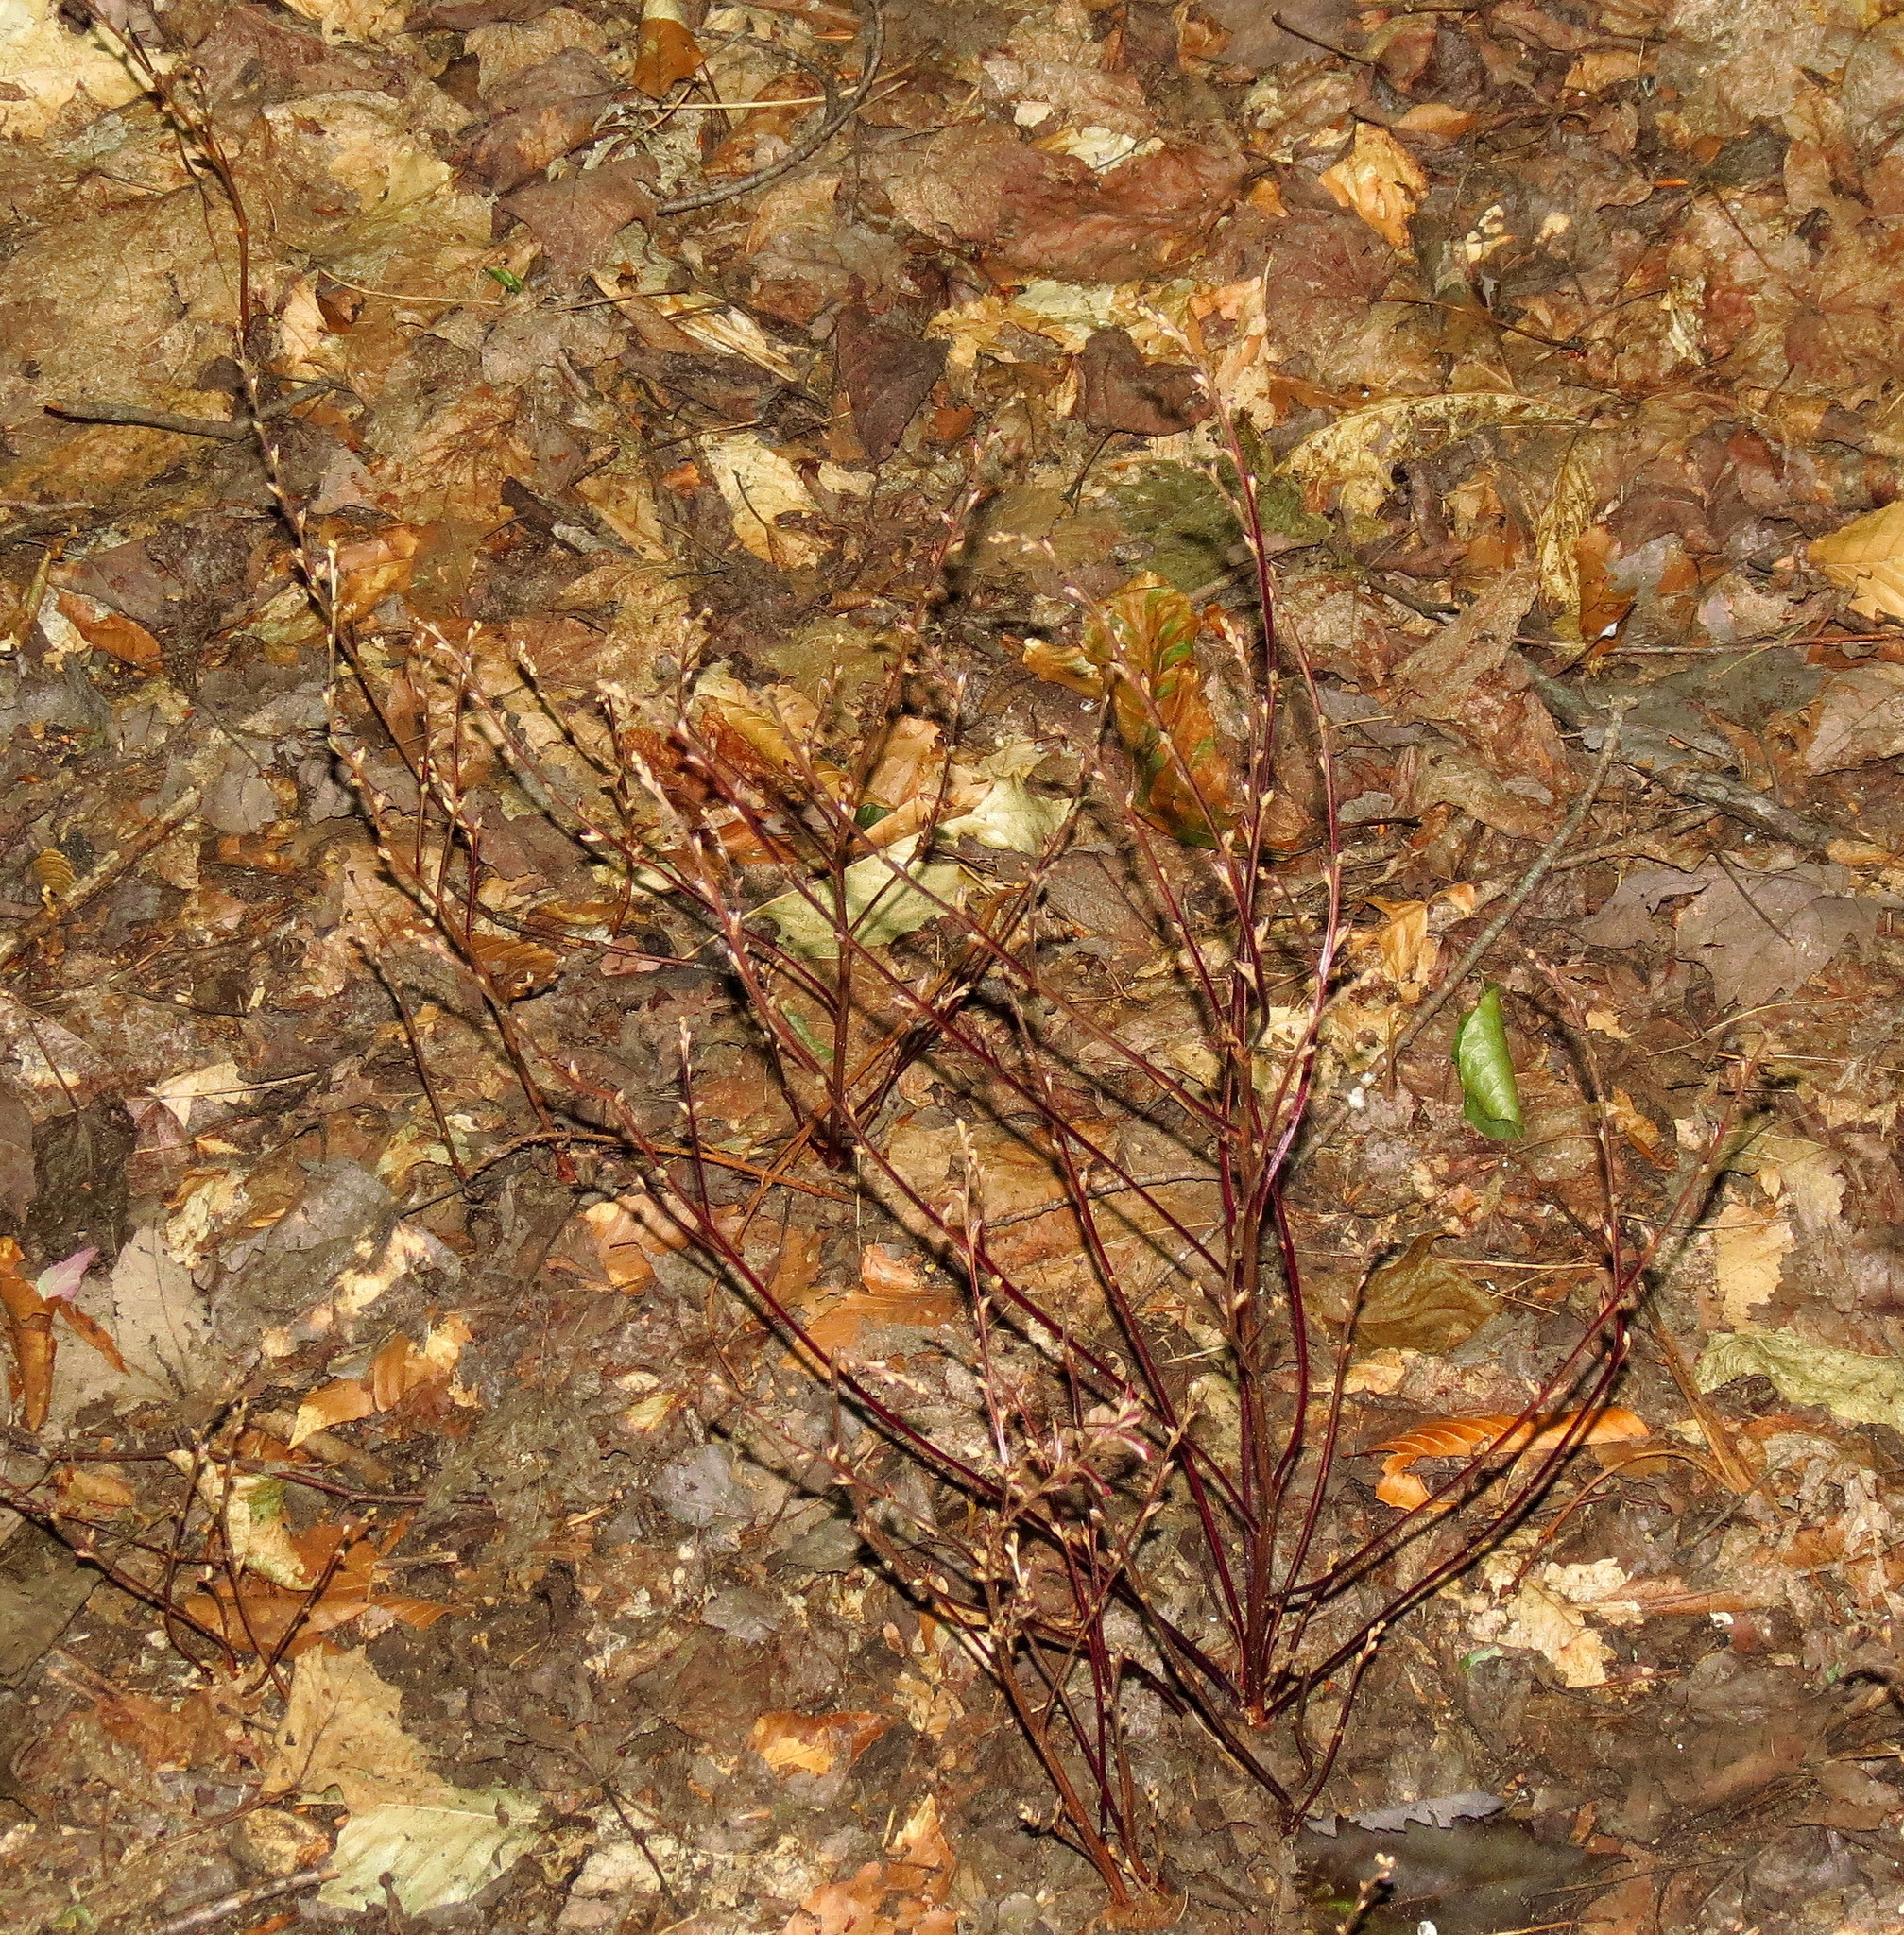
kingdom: Plantae
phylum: Tracheophyta
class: Magnoliopsida
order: Lamiales
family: Orobanchaceae
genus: Epifagus
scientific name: Epifagus virginiana
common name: Beechdrops
